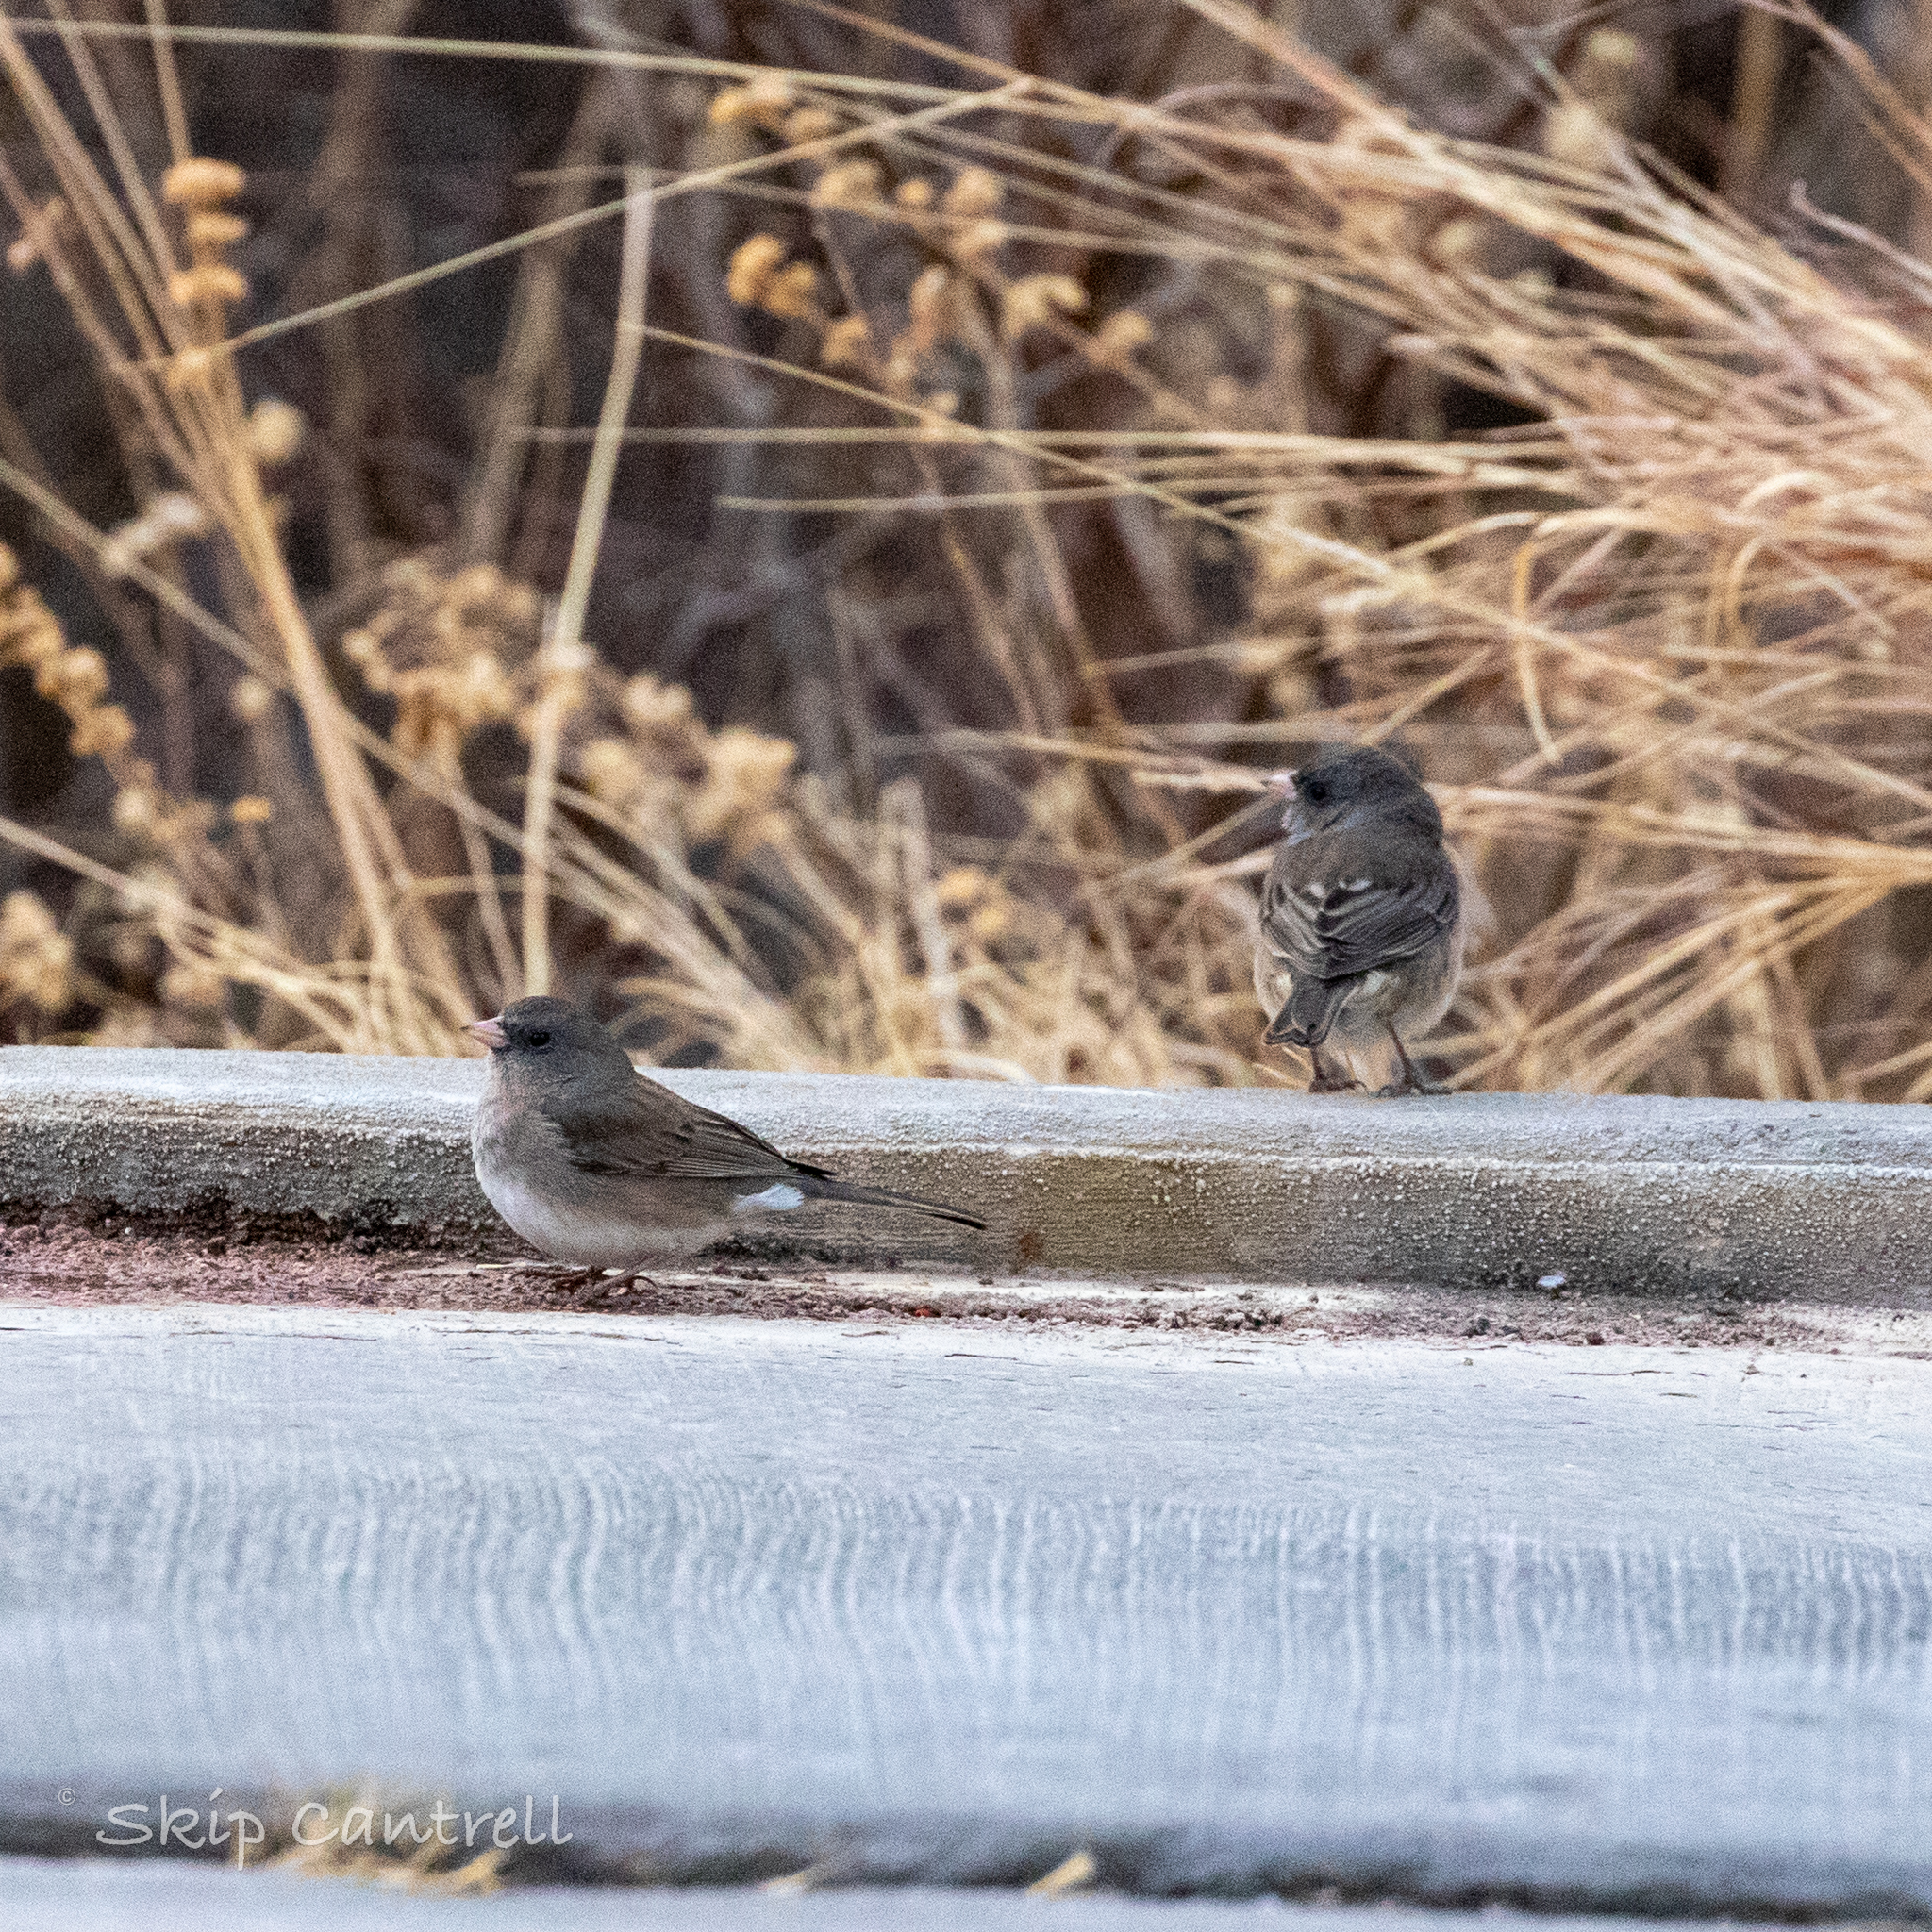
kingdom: Animalia
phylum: Chordata
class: Aves
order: Passeriformes
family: Passerellidae
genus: Junco
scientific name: Junco hyemalis
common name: Dark-eyed junco
